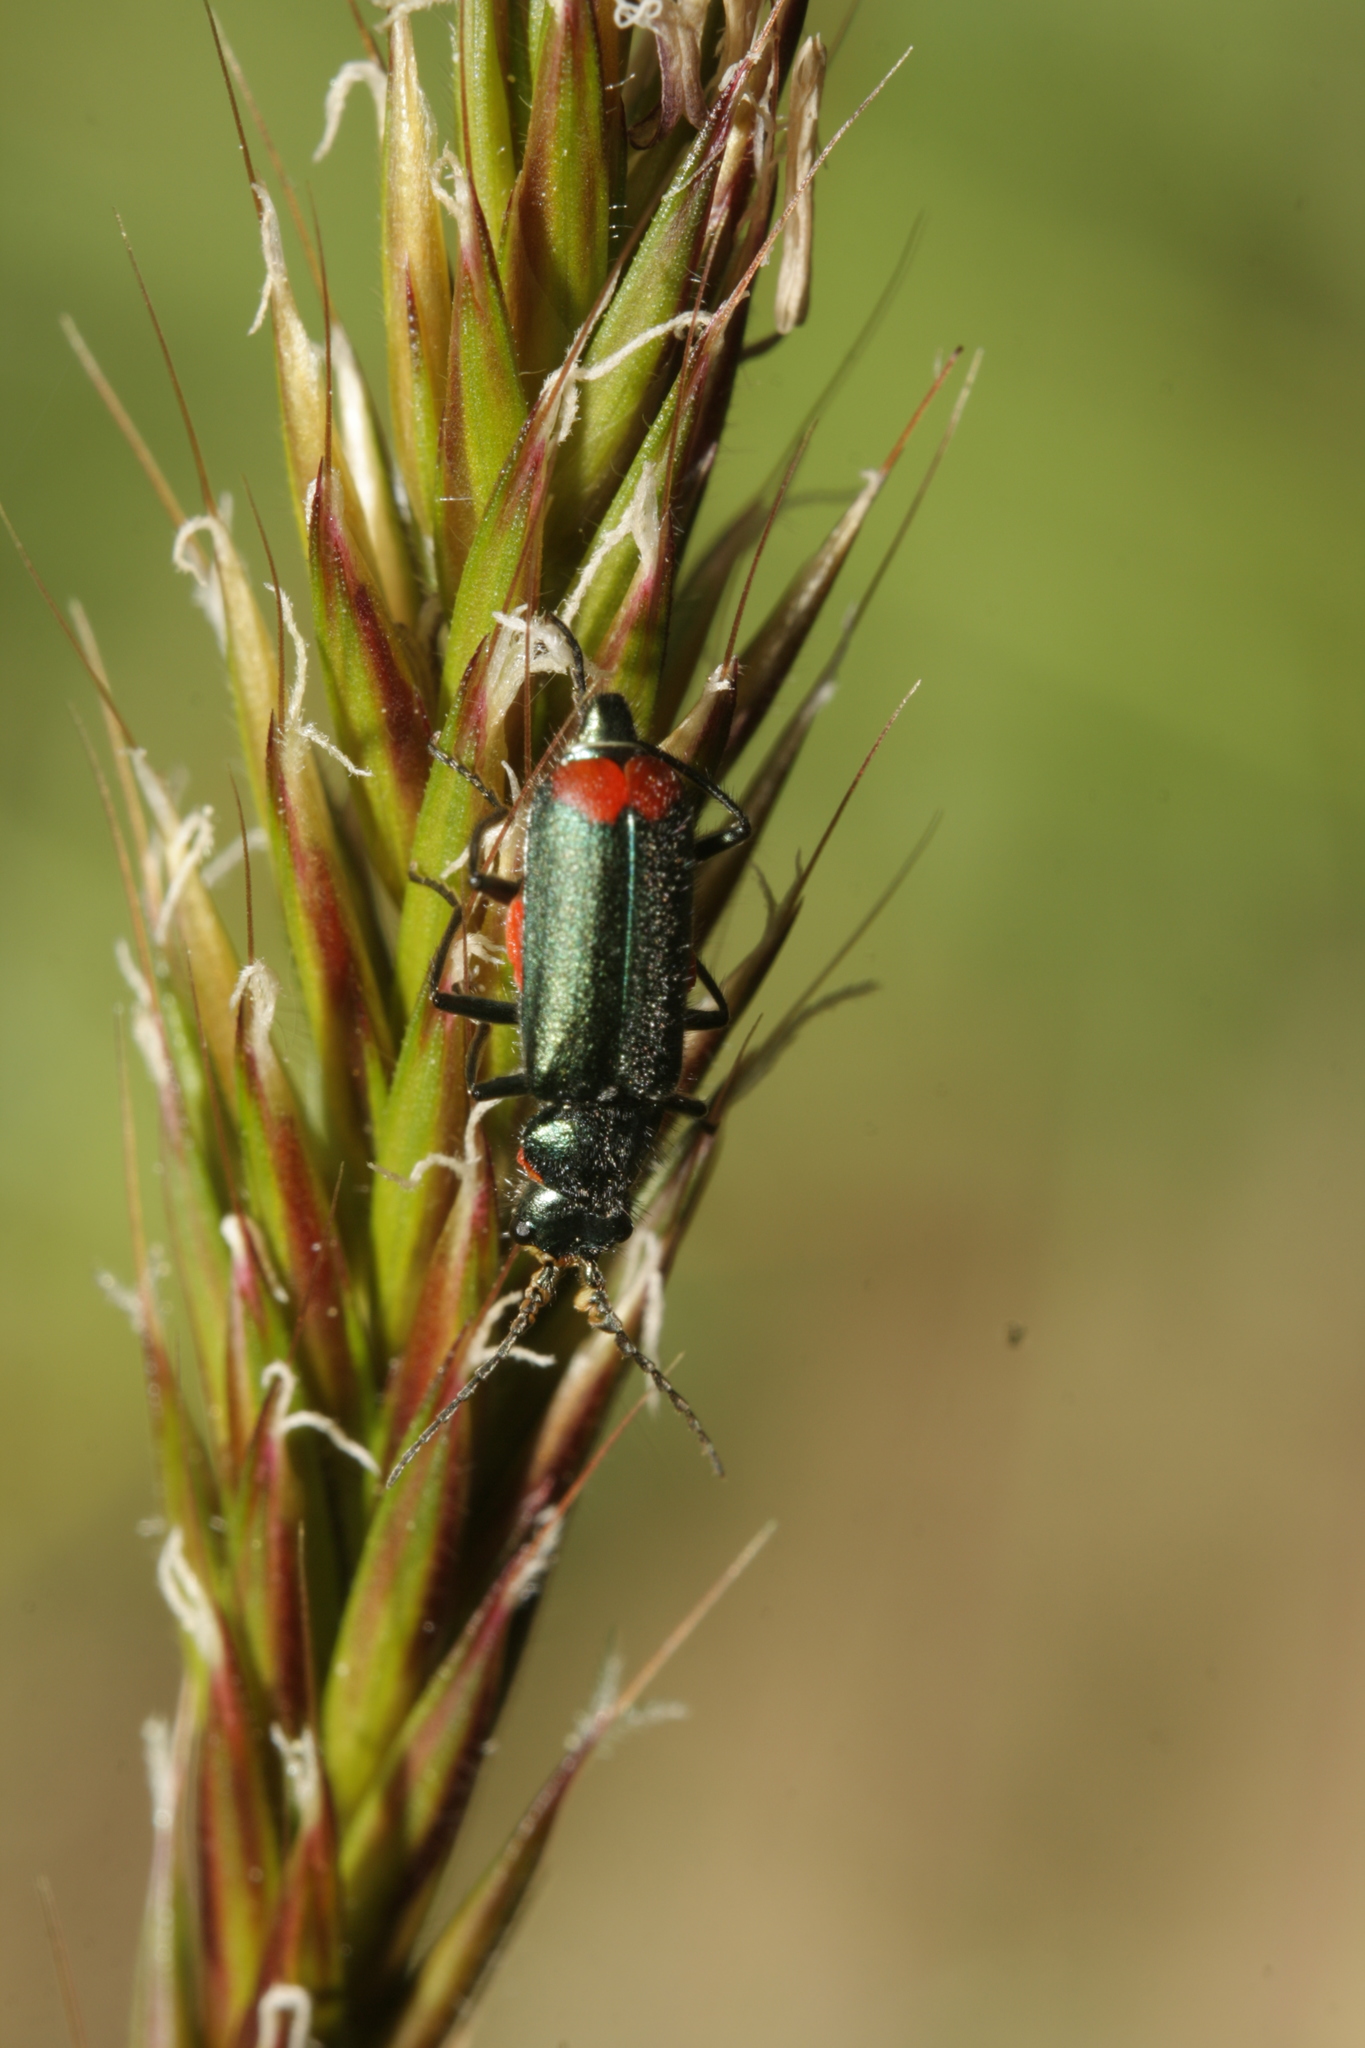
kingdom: Animalia
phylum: Arthropoda
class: Insecta
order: Coleoptera
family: Melyridae
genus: Malachius
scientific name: Malachius bipustulatus
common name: Malachite beetle
